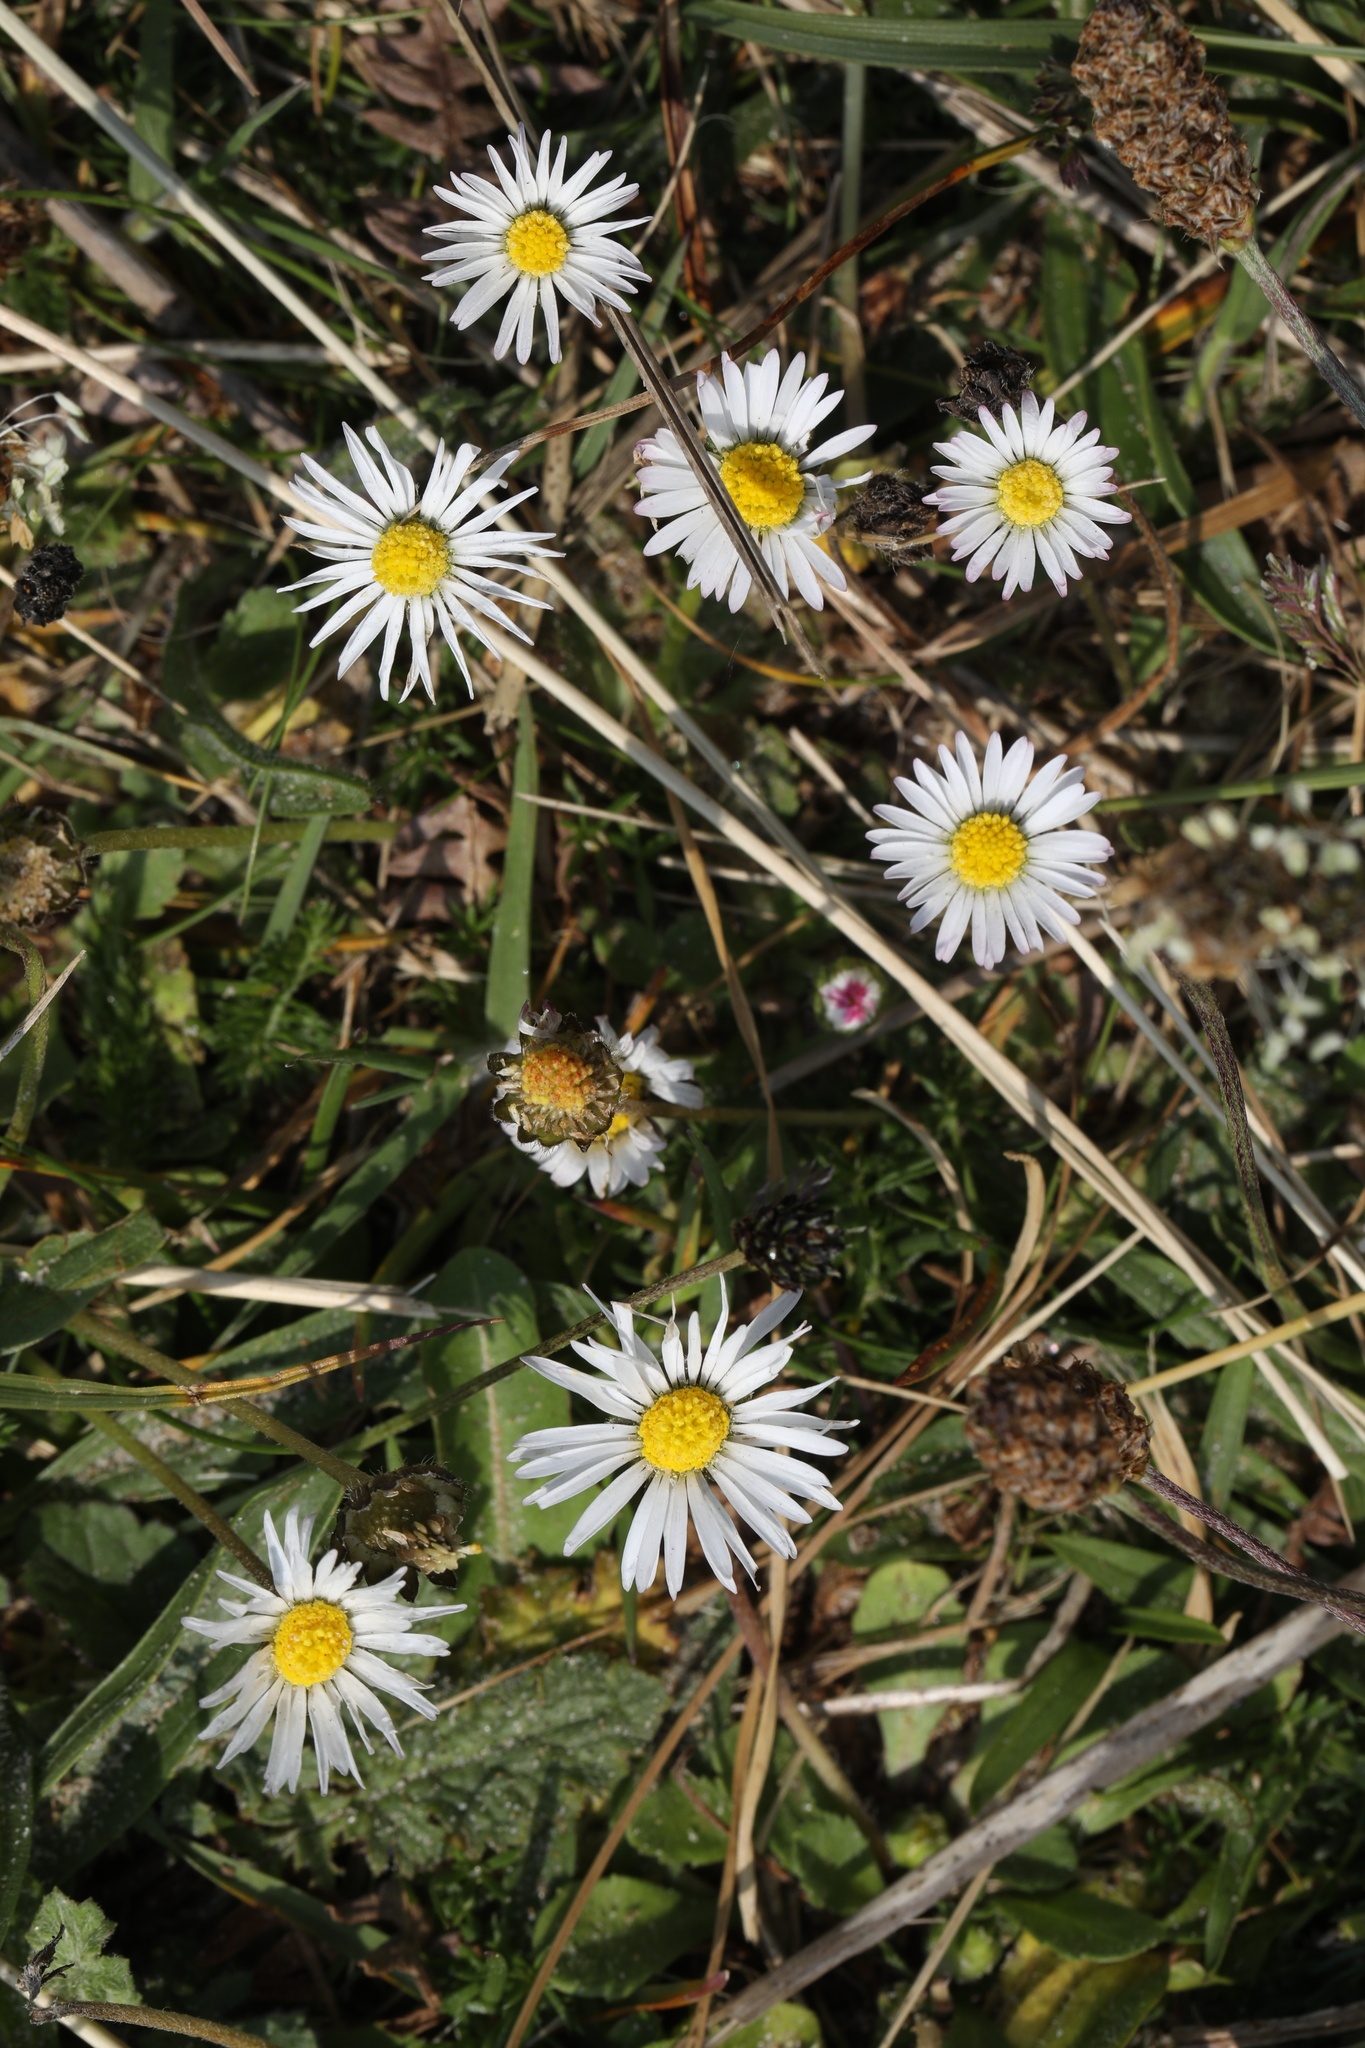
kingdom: Plantae
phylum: Tracheophyta
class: Magnoliopsida
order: Asterales
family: Asteraceae
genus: Bellis
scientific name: Bellis perennis
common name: Lawndaisy
